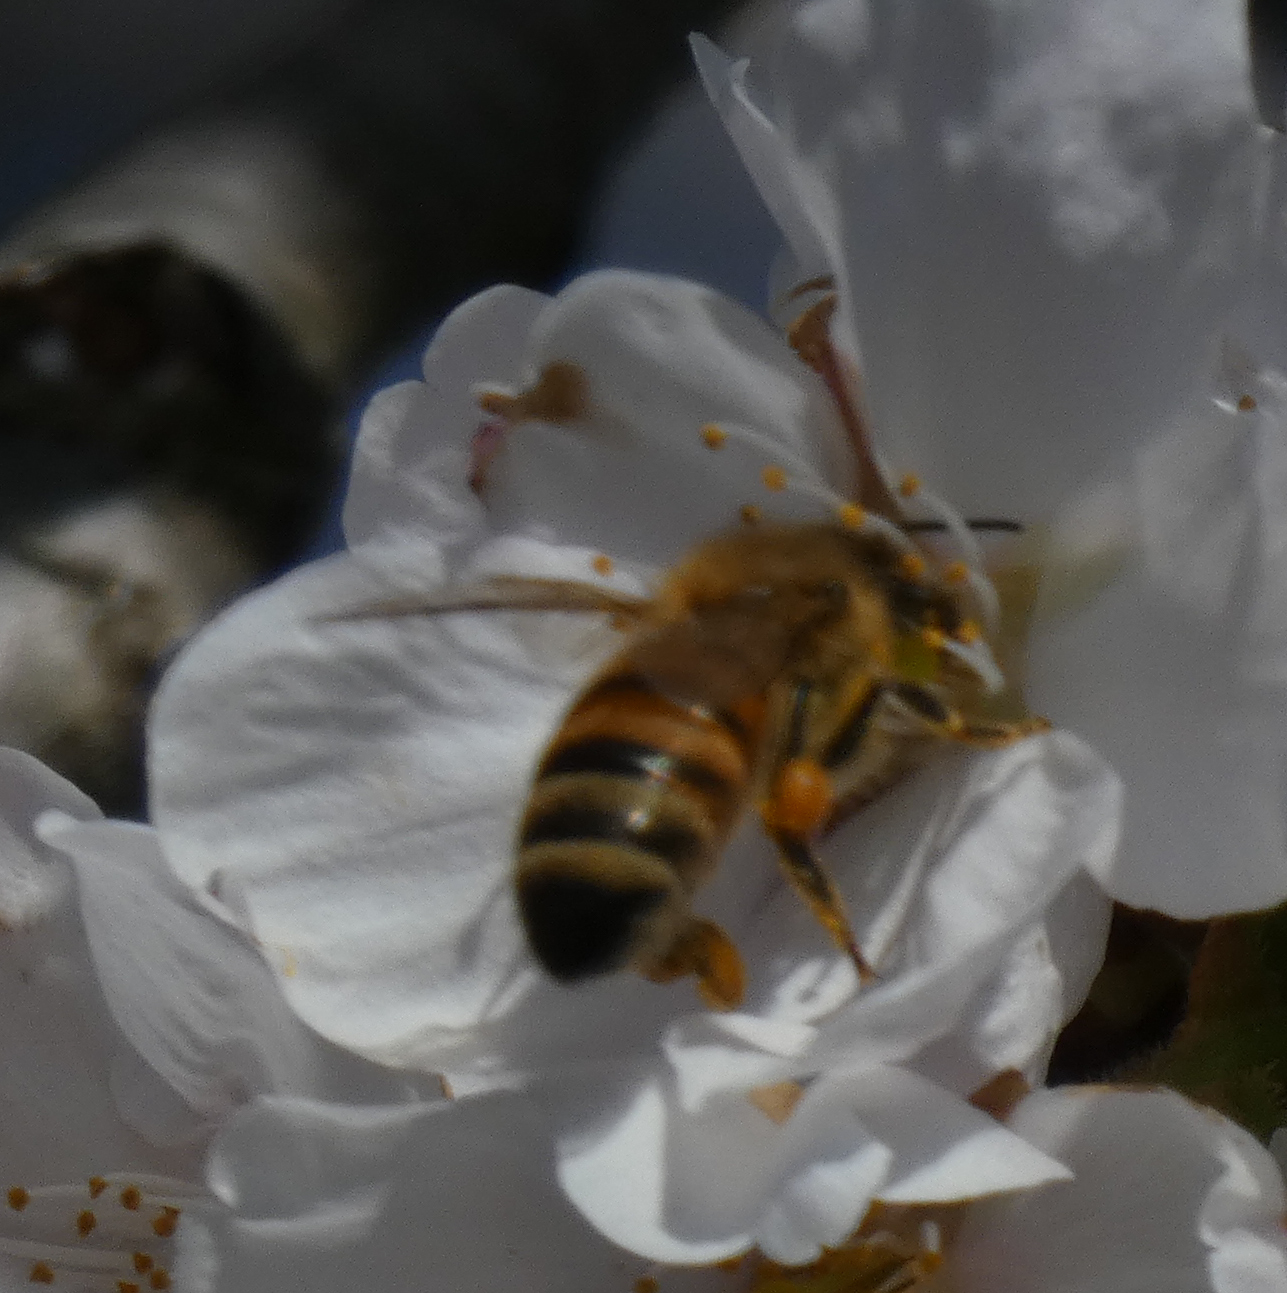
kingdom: Animalia
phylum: Arthropoda
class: Insecta
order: Hymenoptera
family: Apidae
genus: Apis
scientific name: Apis mellifera
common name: Honey bee
